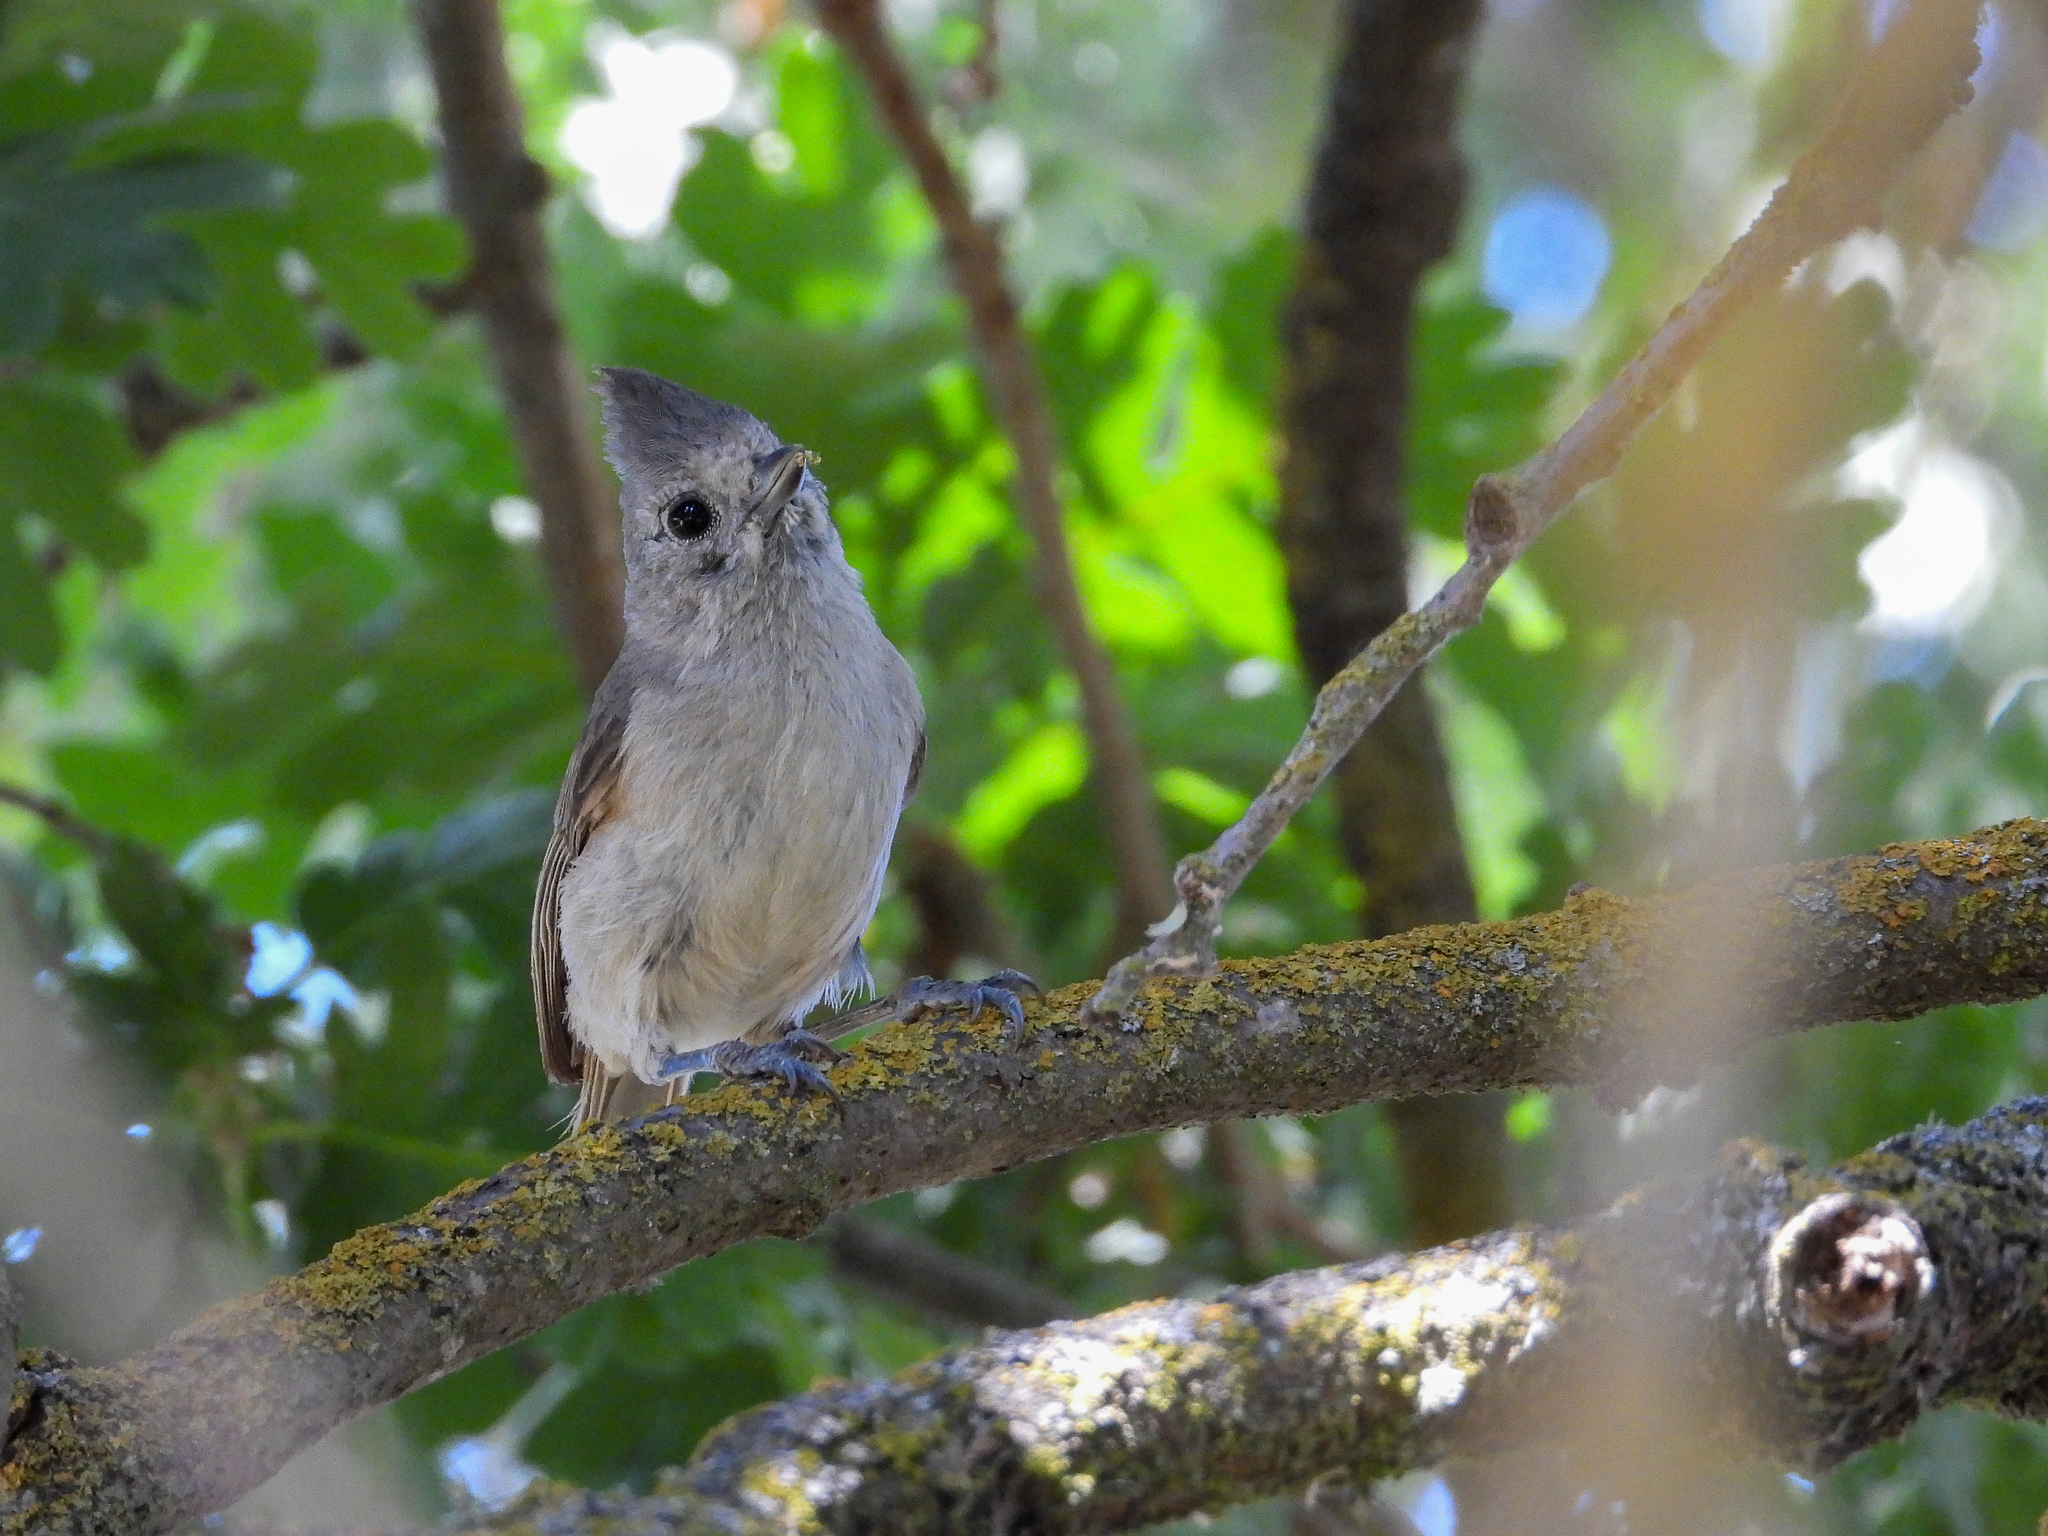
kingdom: Animalia
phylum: Chordata
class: Aves
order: Passeriformes
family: Paridae
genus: Baeolophus
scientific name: Baeolophus inornatus
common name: Oak titmouse
